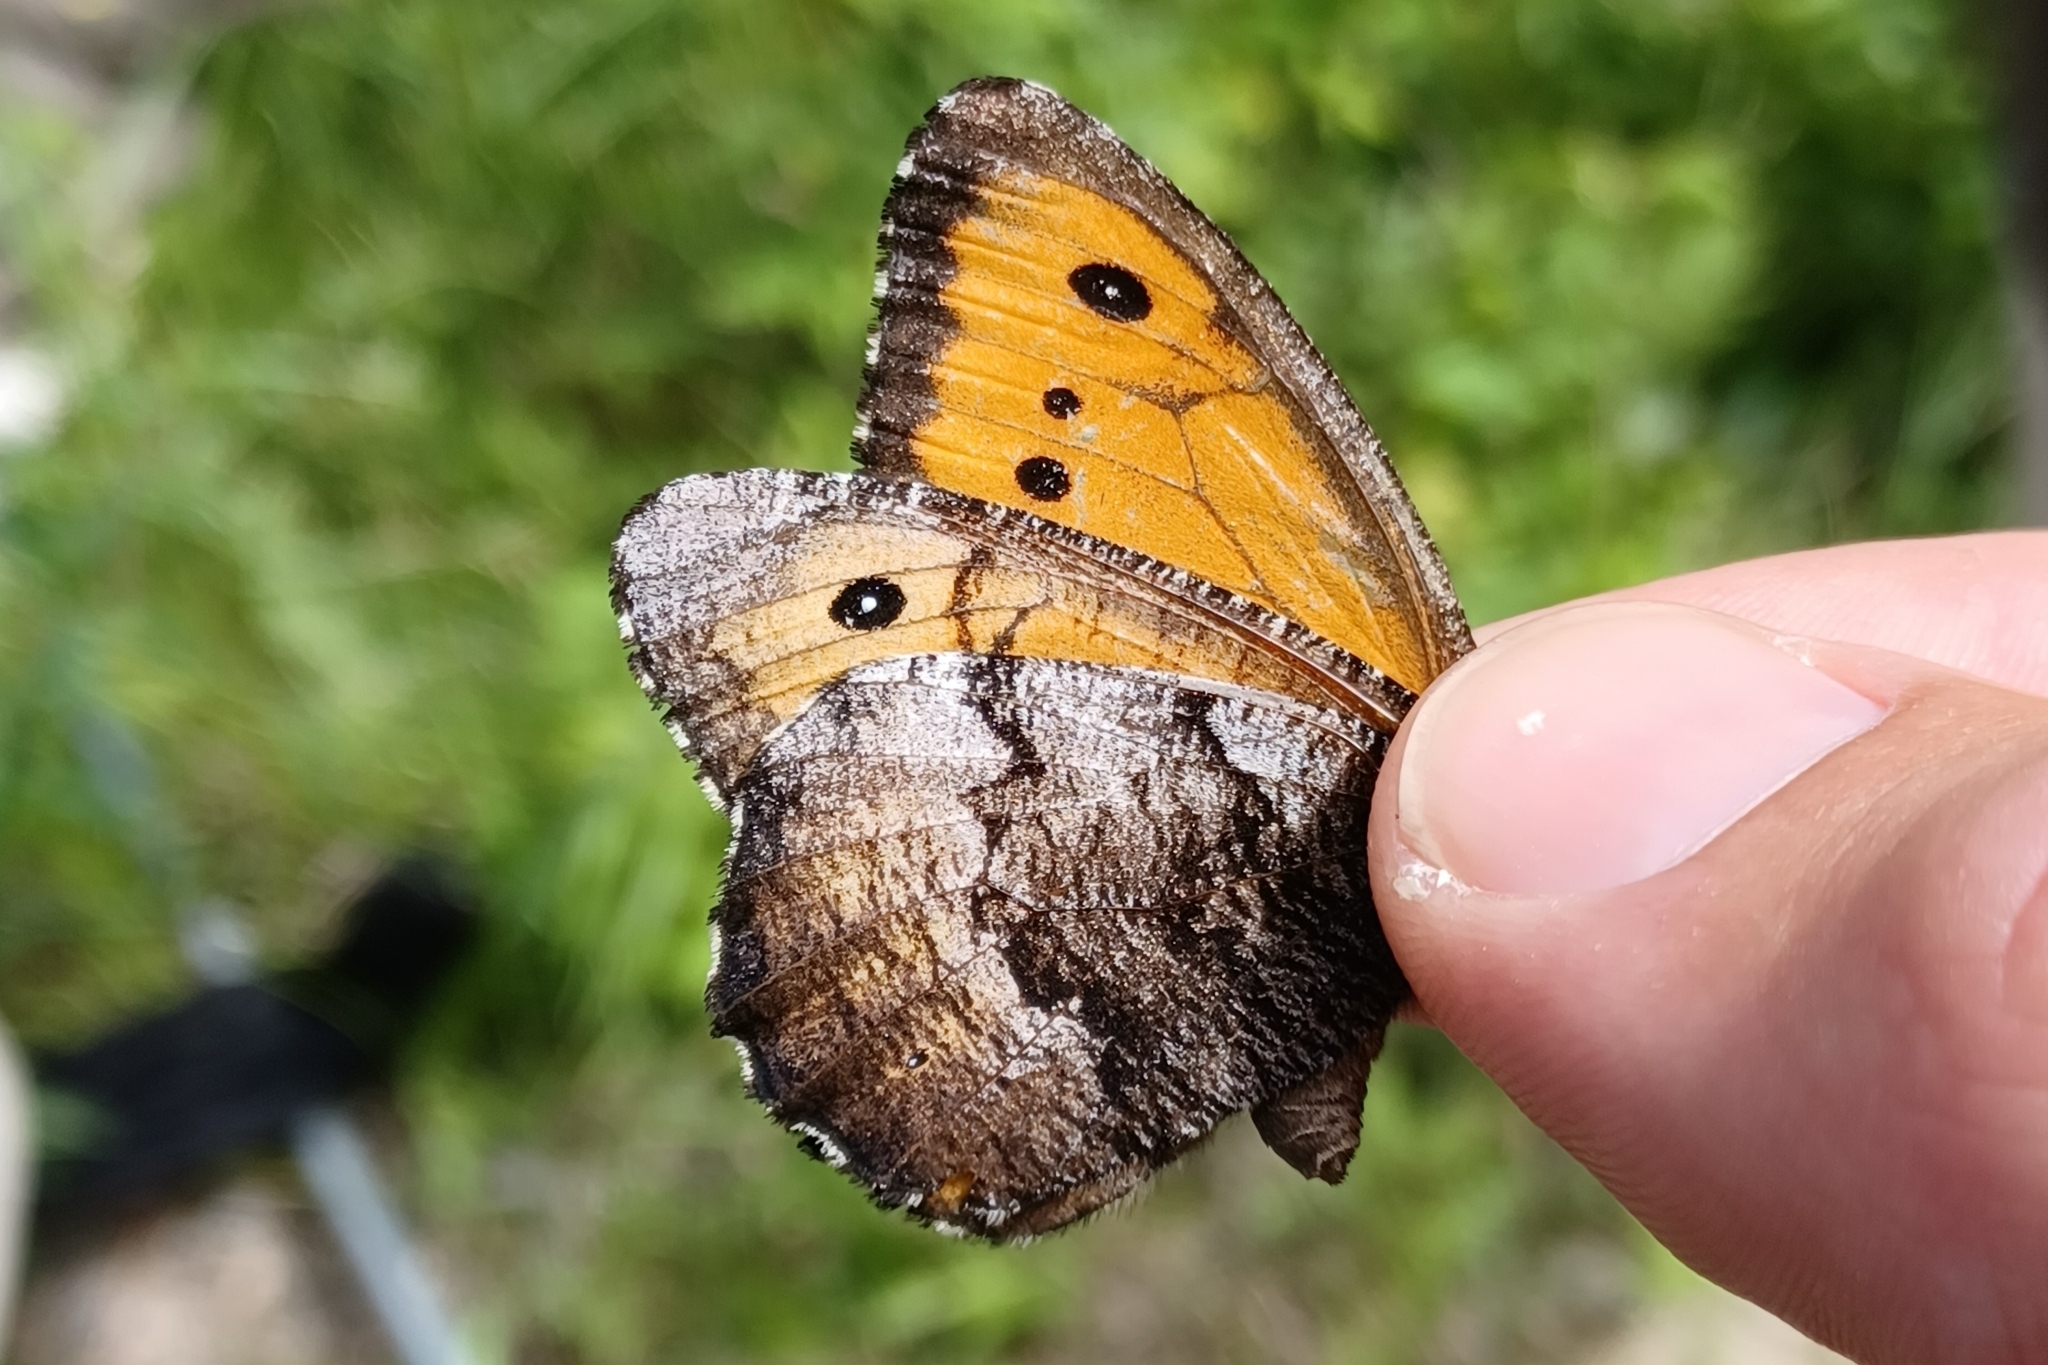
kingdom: Animalia
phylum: Arthropoda
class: Insecta
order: Lepidoptera
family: Nymphalidae
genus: Oeneis
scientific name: Oeneis macounii
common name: Macoun's arctic
